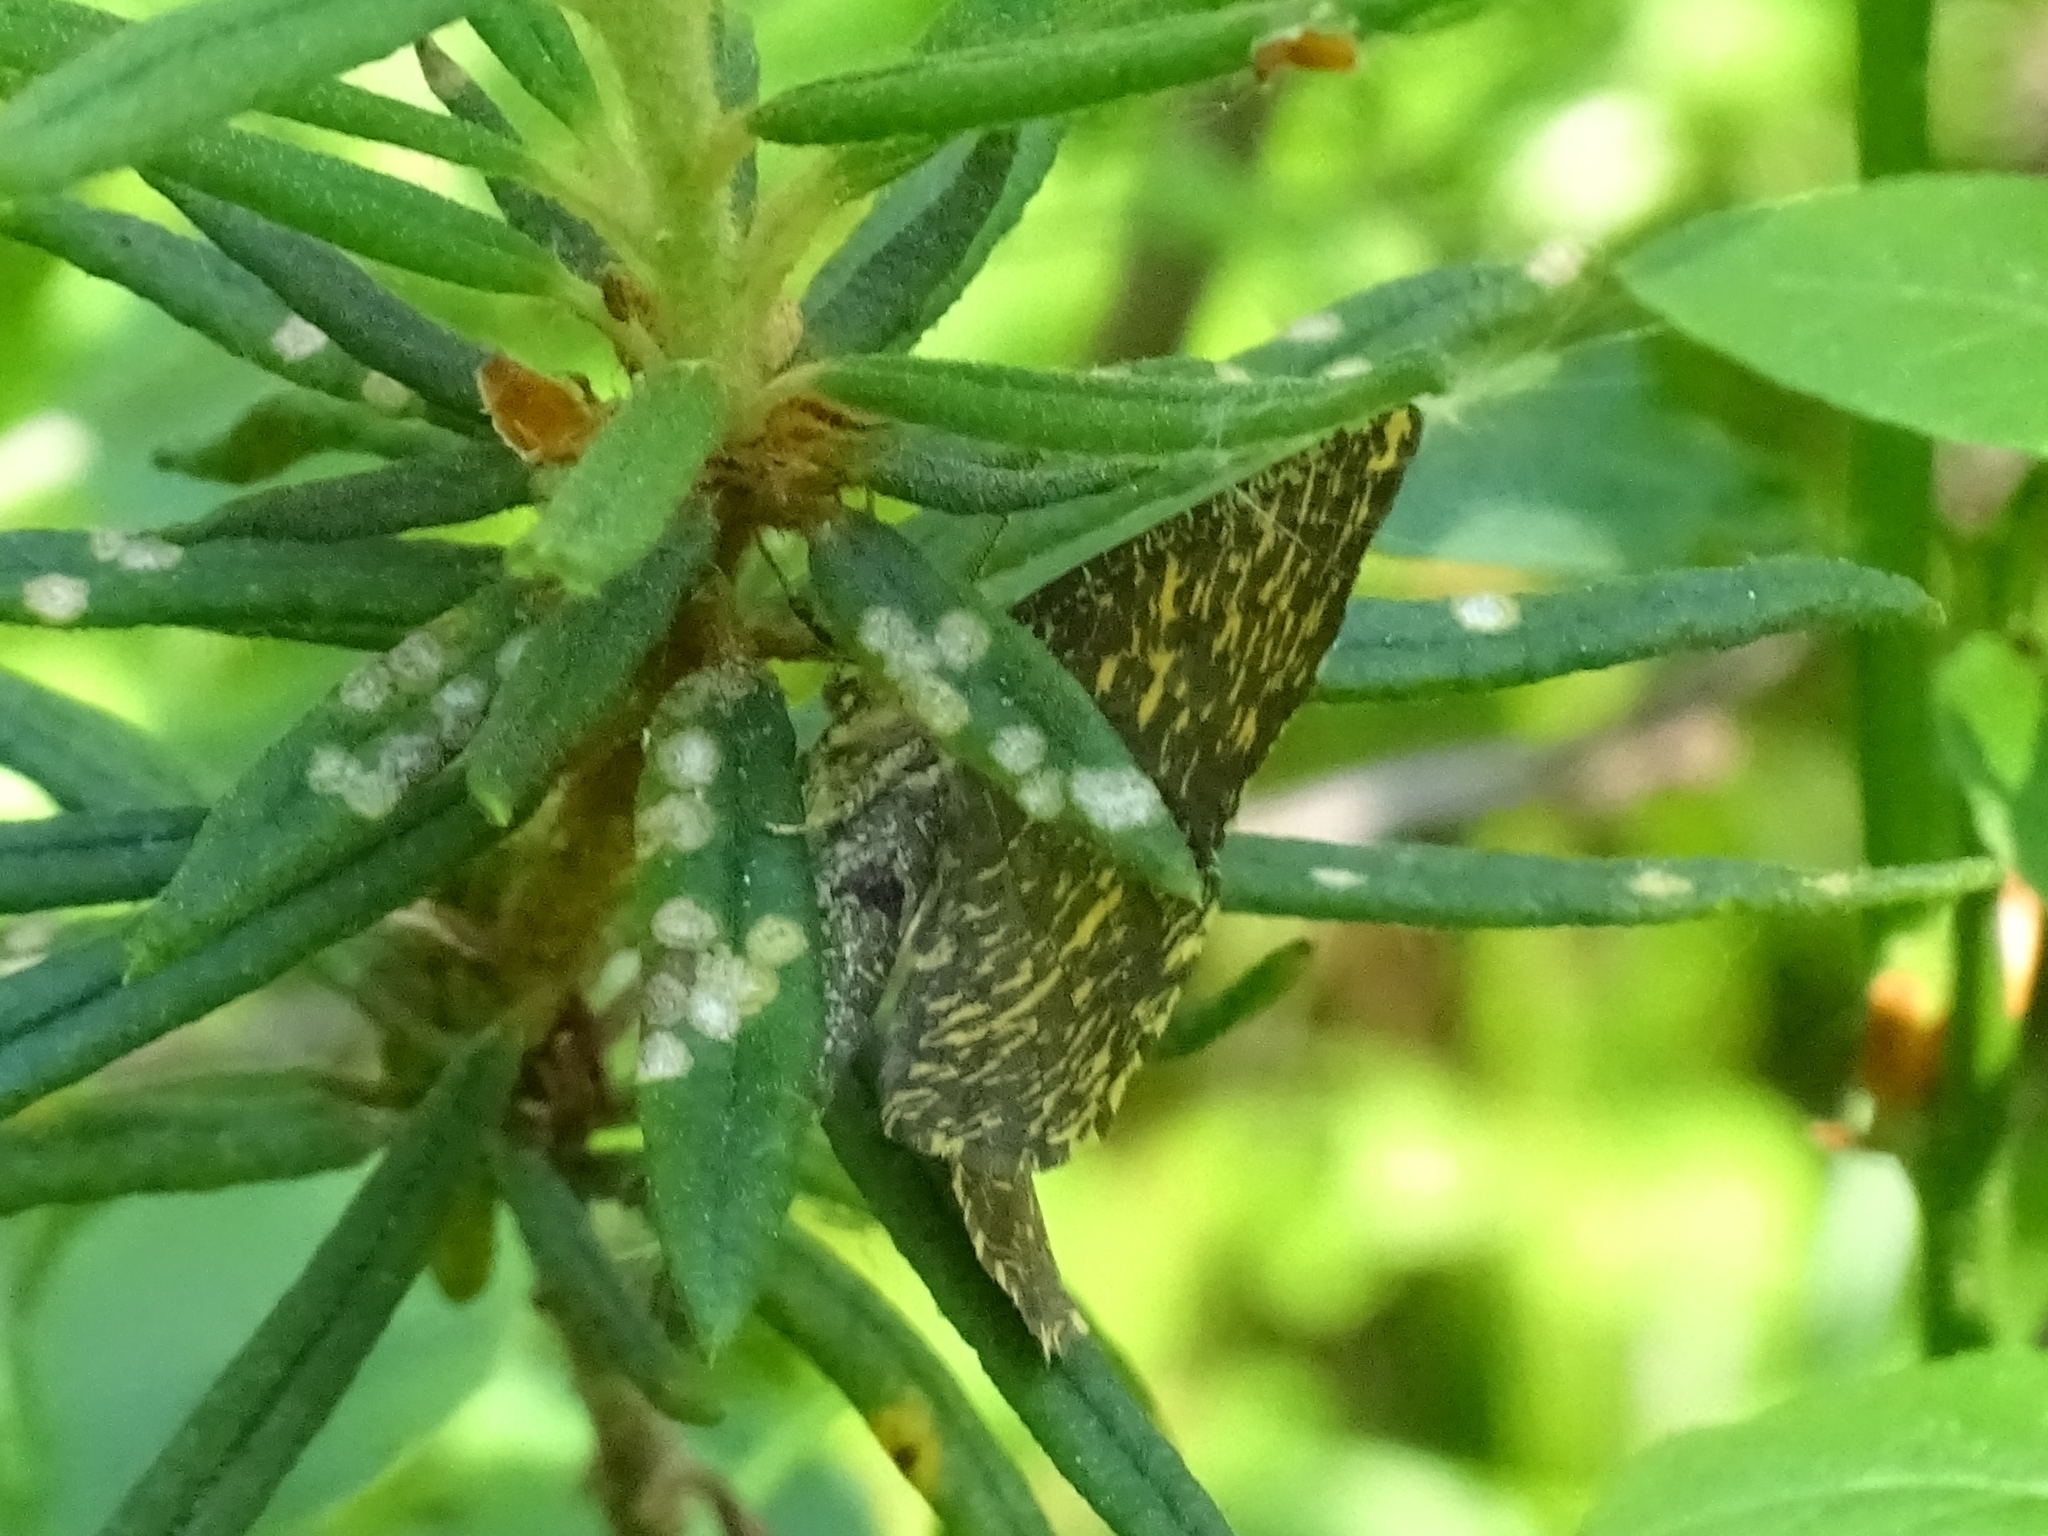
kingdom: Animalia
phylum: Arthropoda
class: Insecta
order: Lepidoptera
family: Geometridae
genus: Angerona
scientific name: Angerona prunaria
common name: Orange moth
